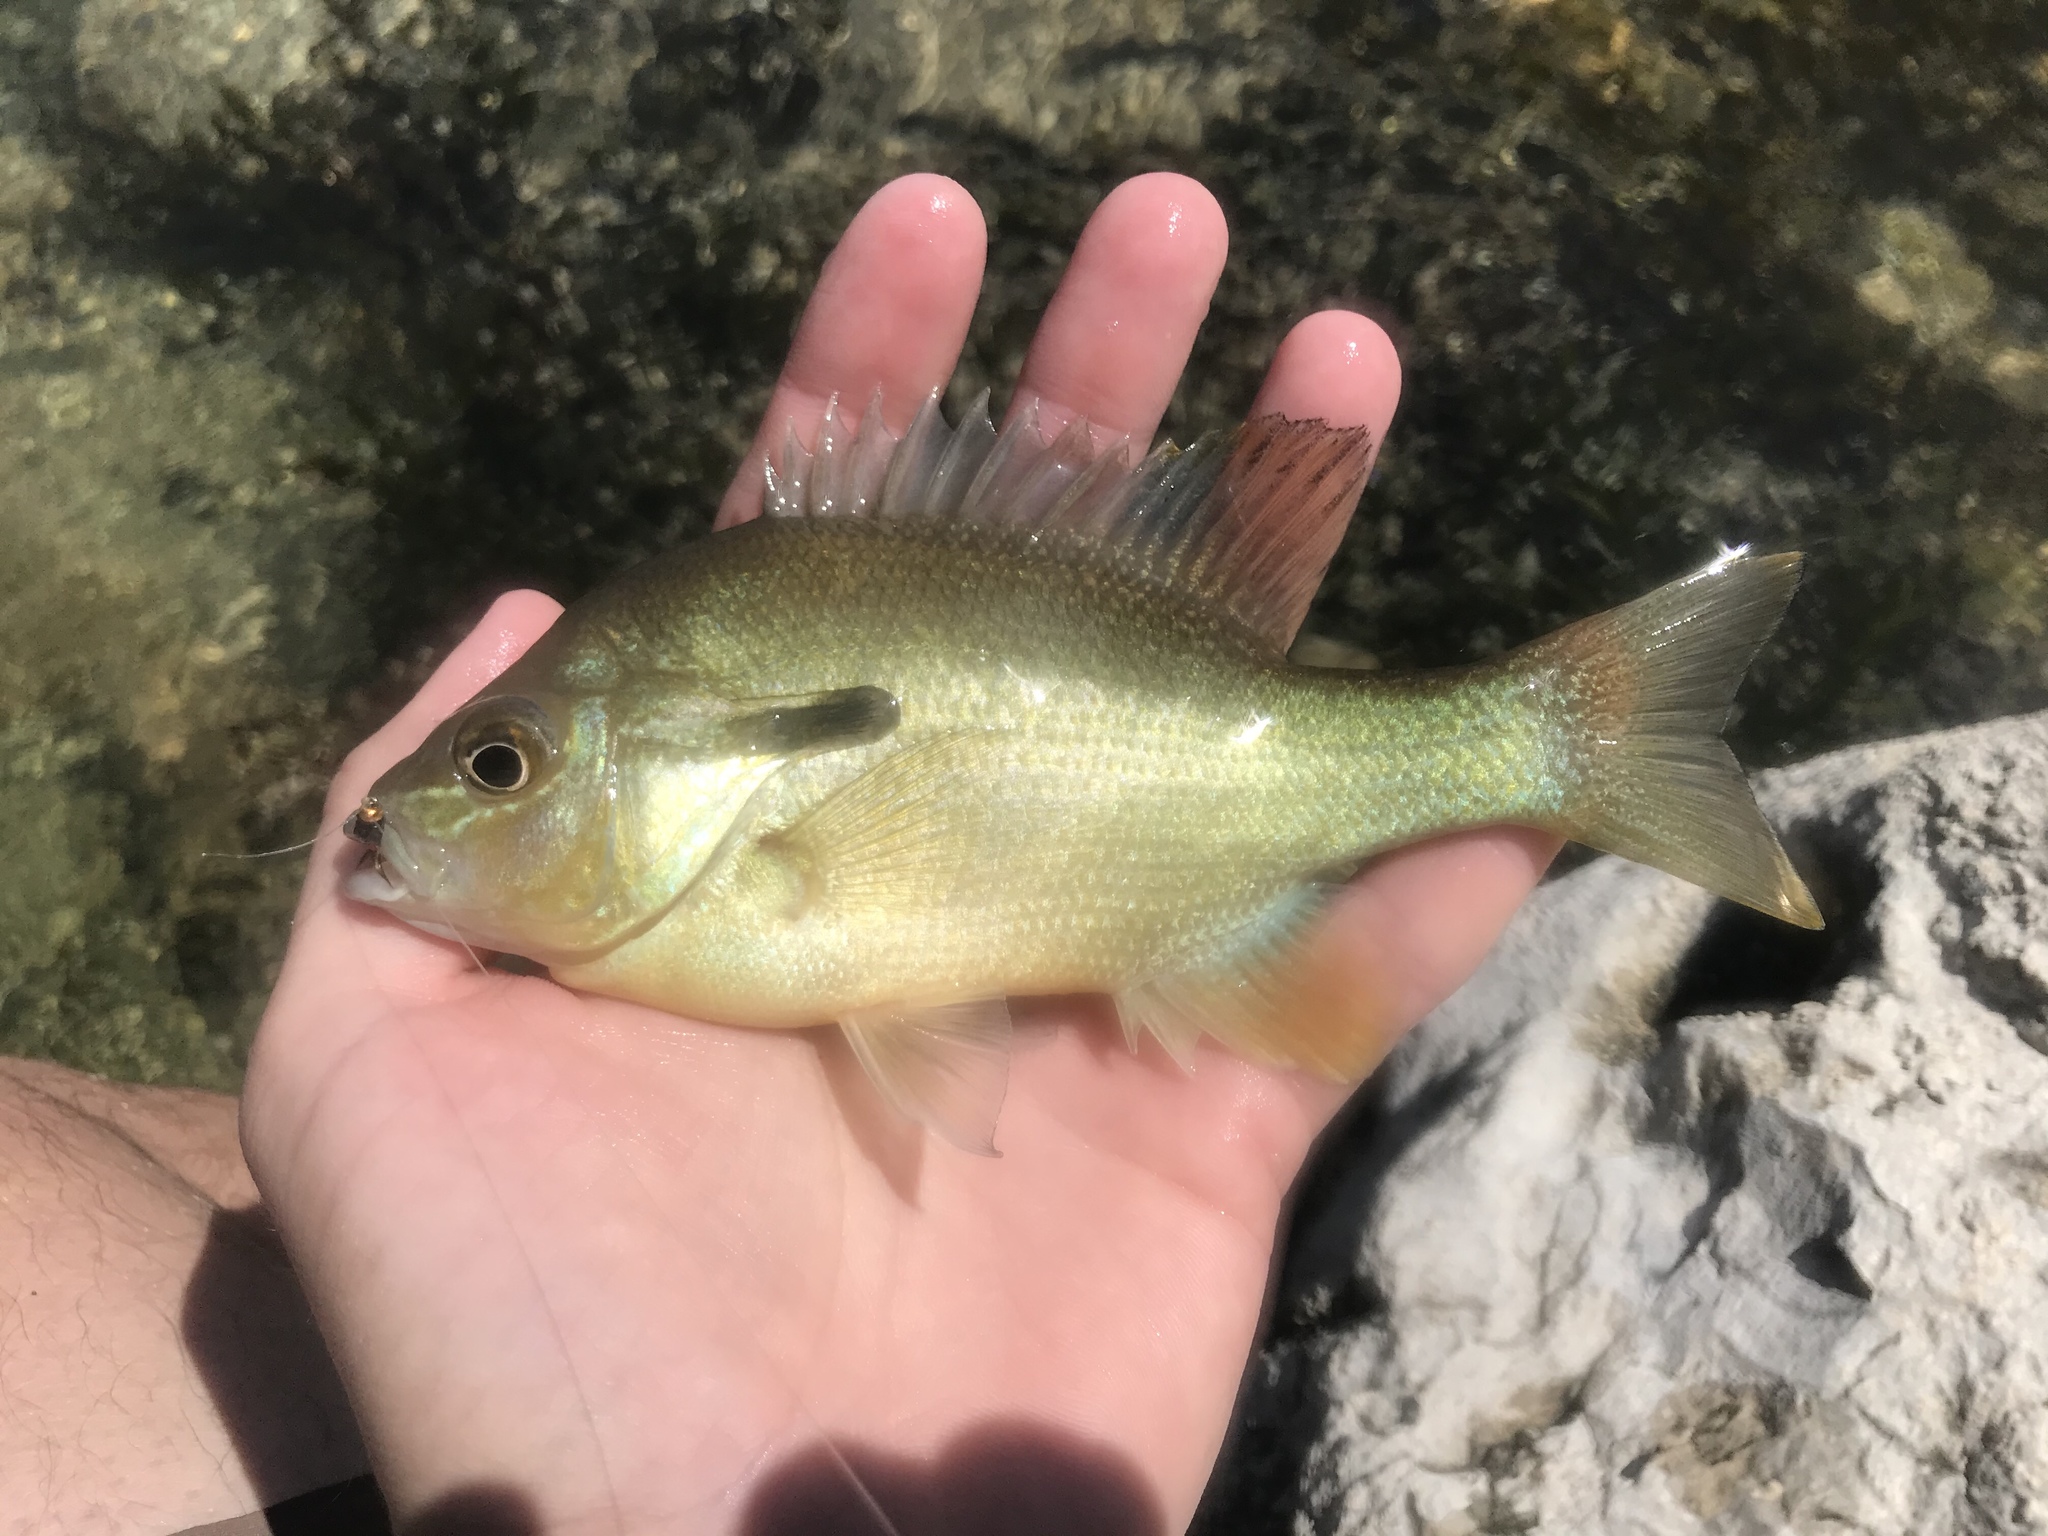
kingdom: Animalia
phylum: Chordata
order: Perciformes
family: Centrarchidae
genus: Lepomis
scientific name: Lepomis auritus
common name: Redbreast sunfish
